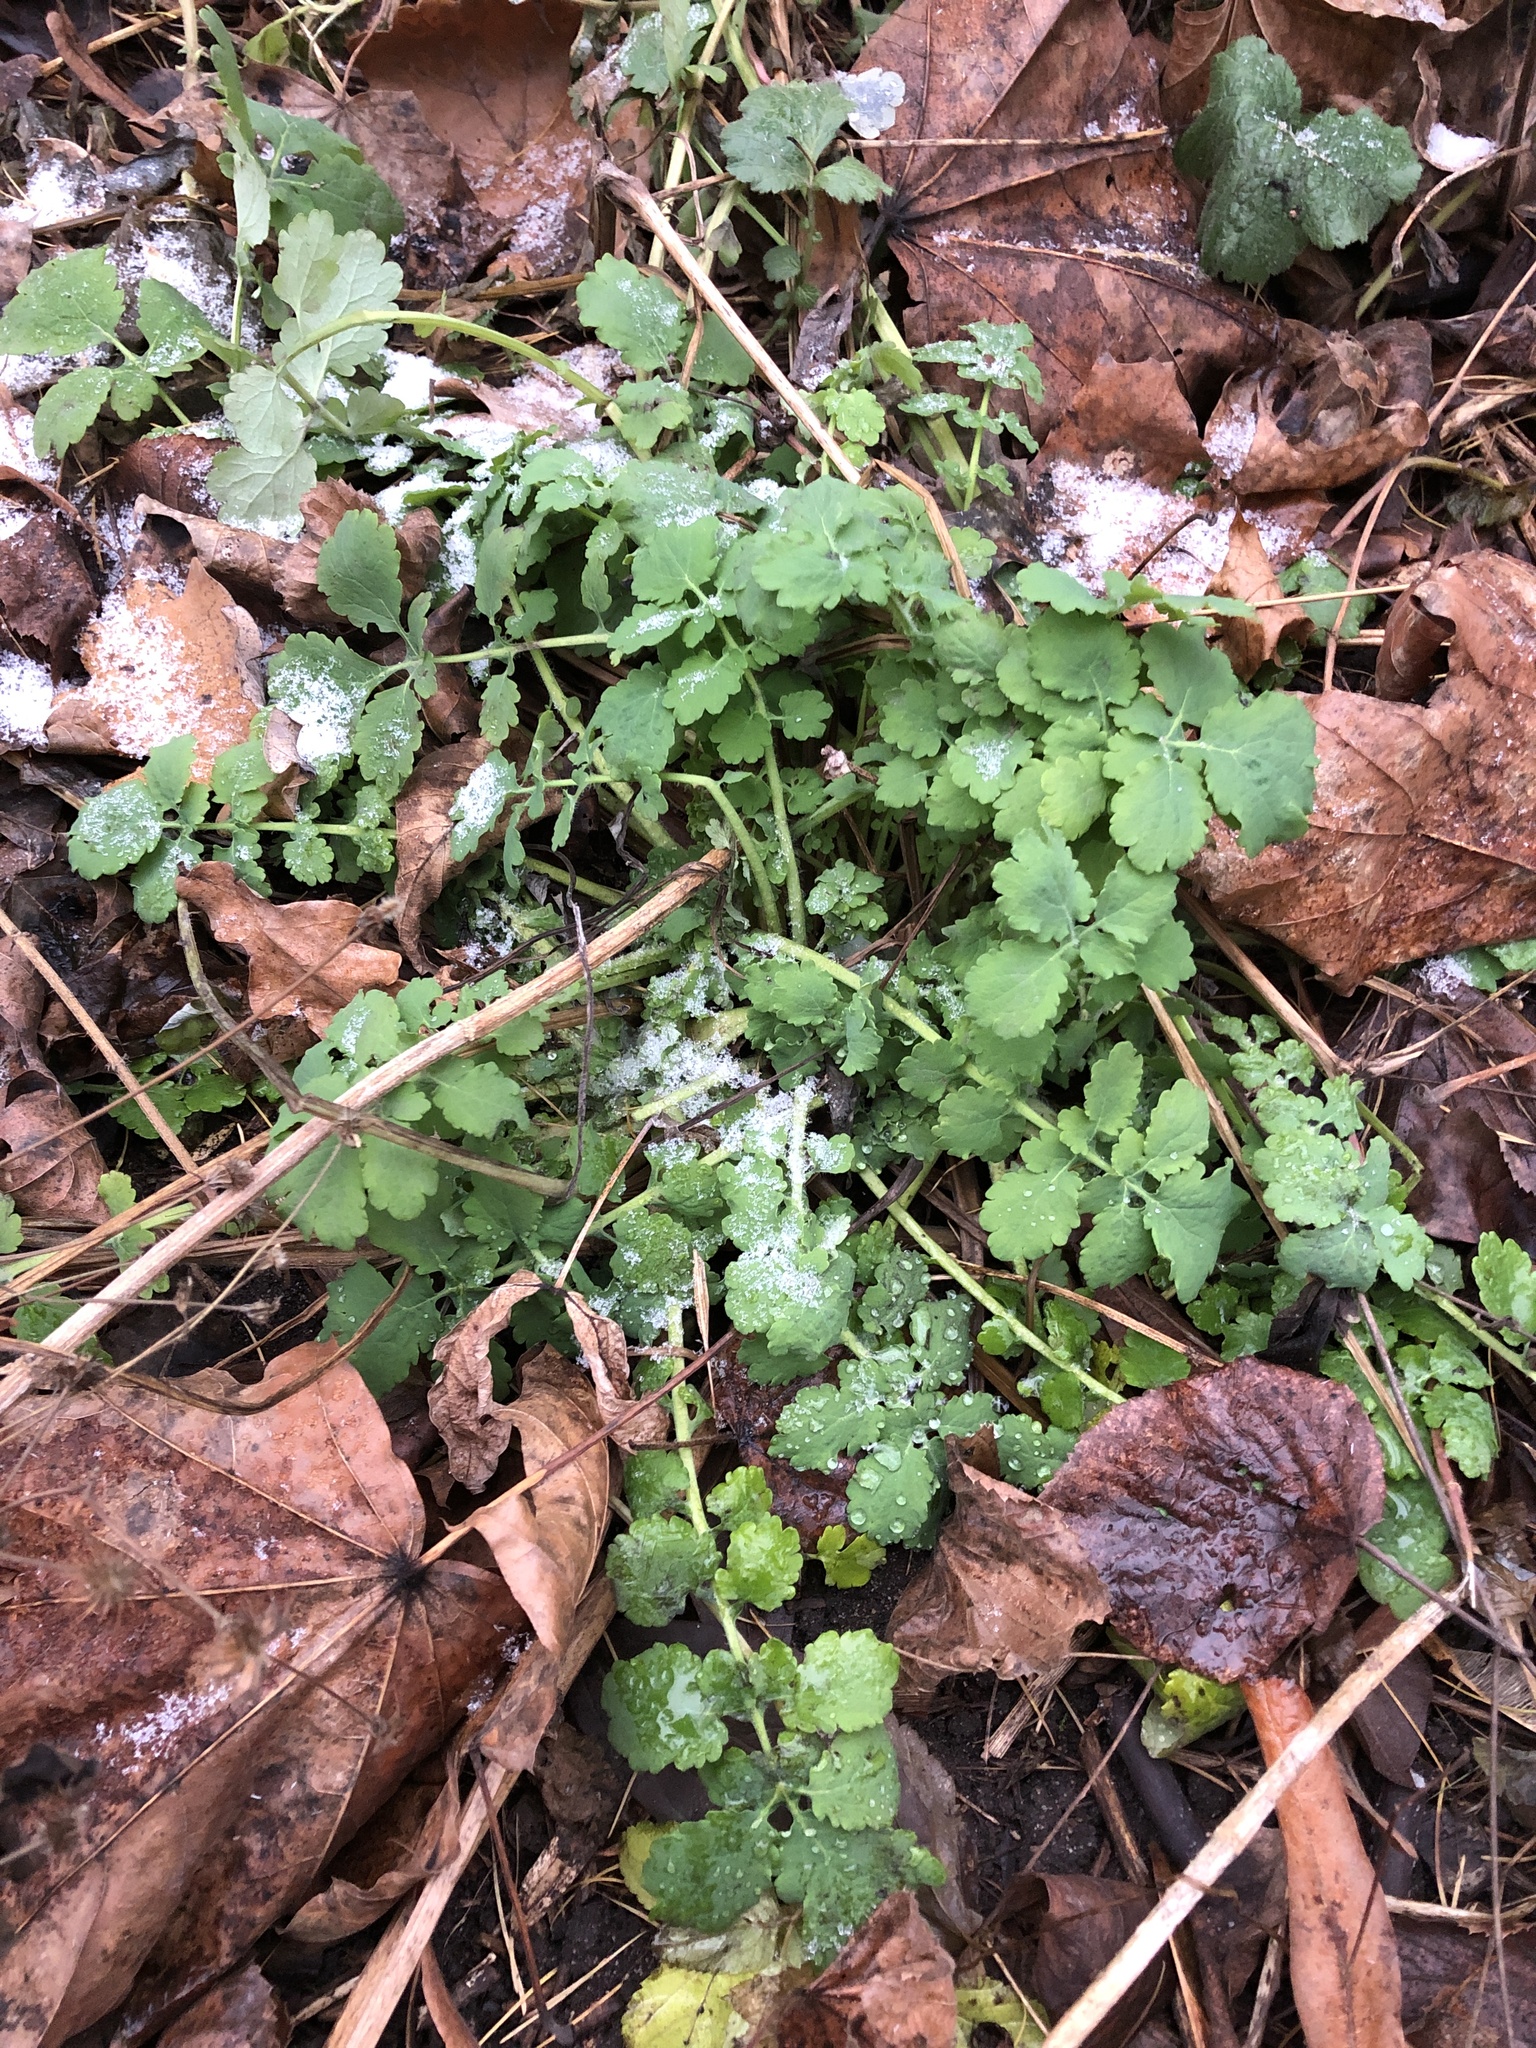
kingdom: Plantae
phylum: Tracheophyta
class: Magnoliopsida
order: Ranunculales
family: Papaveraceae
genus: Chelidonium
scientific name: Chelidonium majus
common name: Greater celandine
